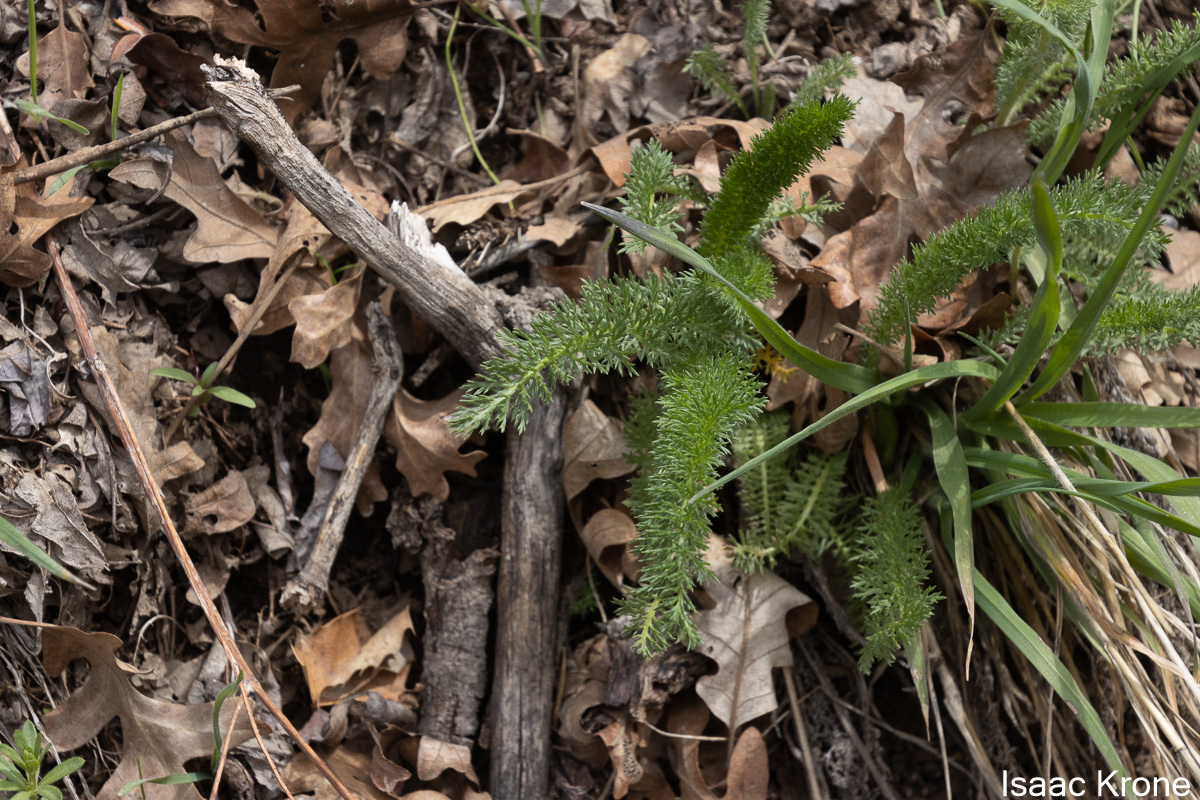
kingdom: Plantae
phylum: Tracheophyta
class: Magnoliopsida
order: Asterales
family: Asteraceae
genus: Achillea
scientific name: Achillea millefolium
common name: Yarrow
